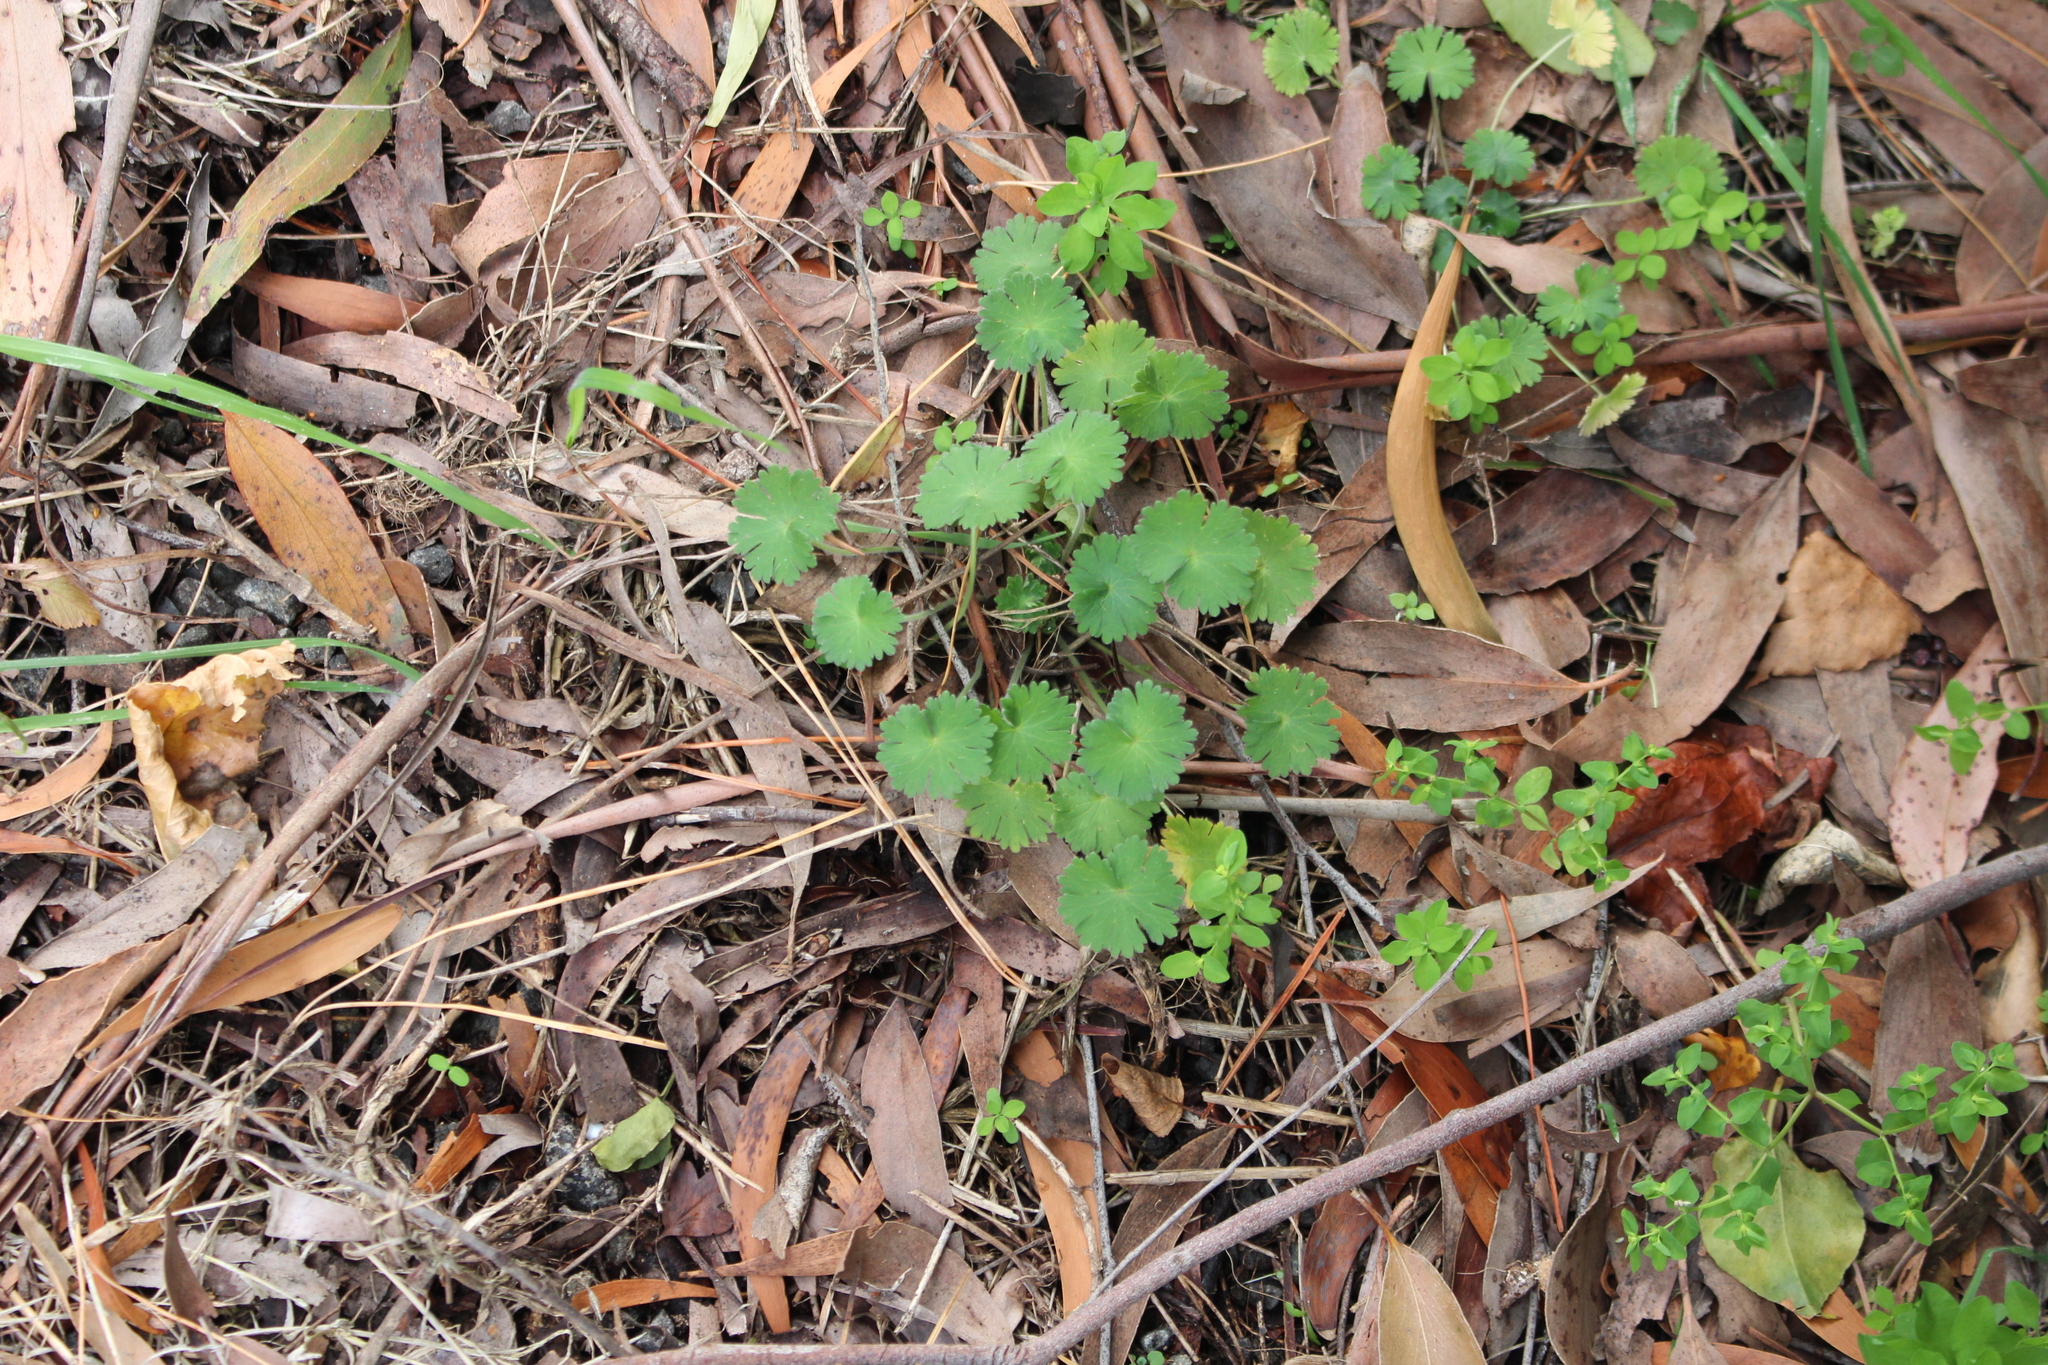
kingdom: Plantae
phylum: Tracheophyta
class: Magnoliopsida
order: Geraniales
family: Geraniaceae
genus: Geranium
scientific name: Geranium molle
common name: Dove's-foot crane's-bill
